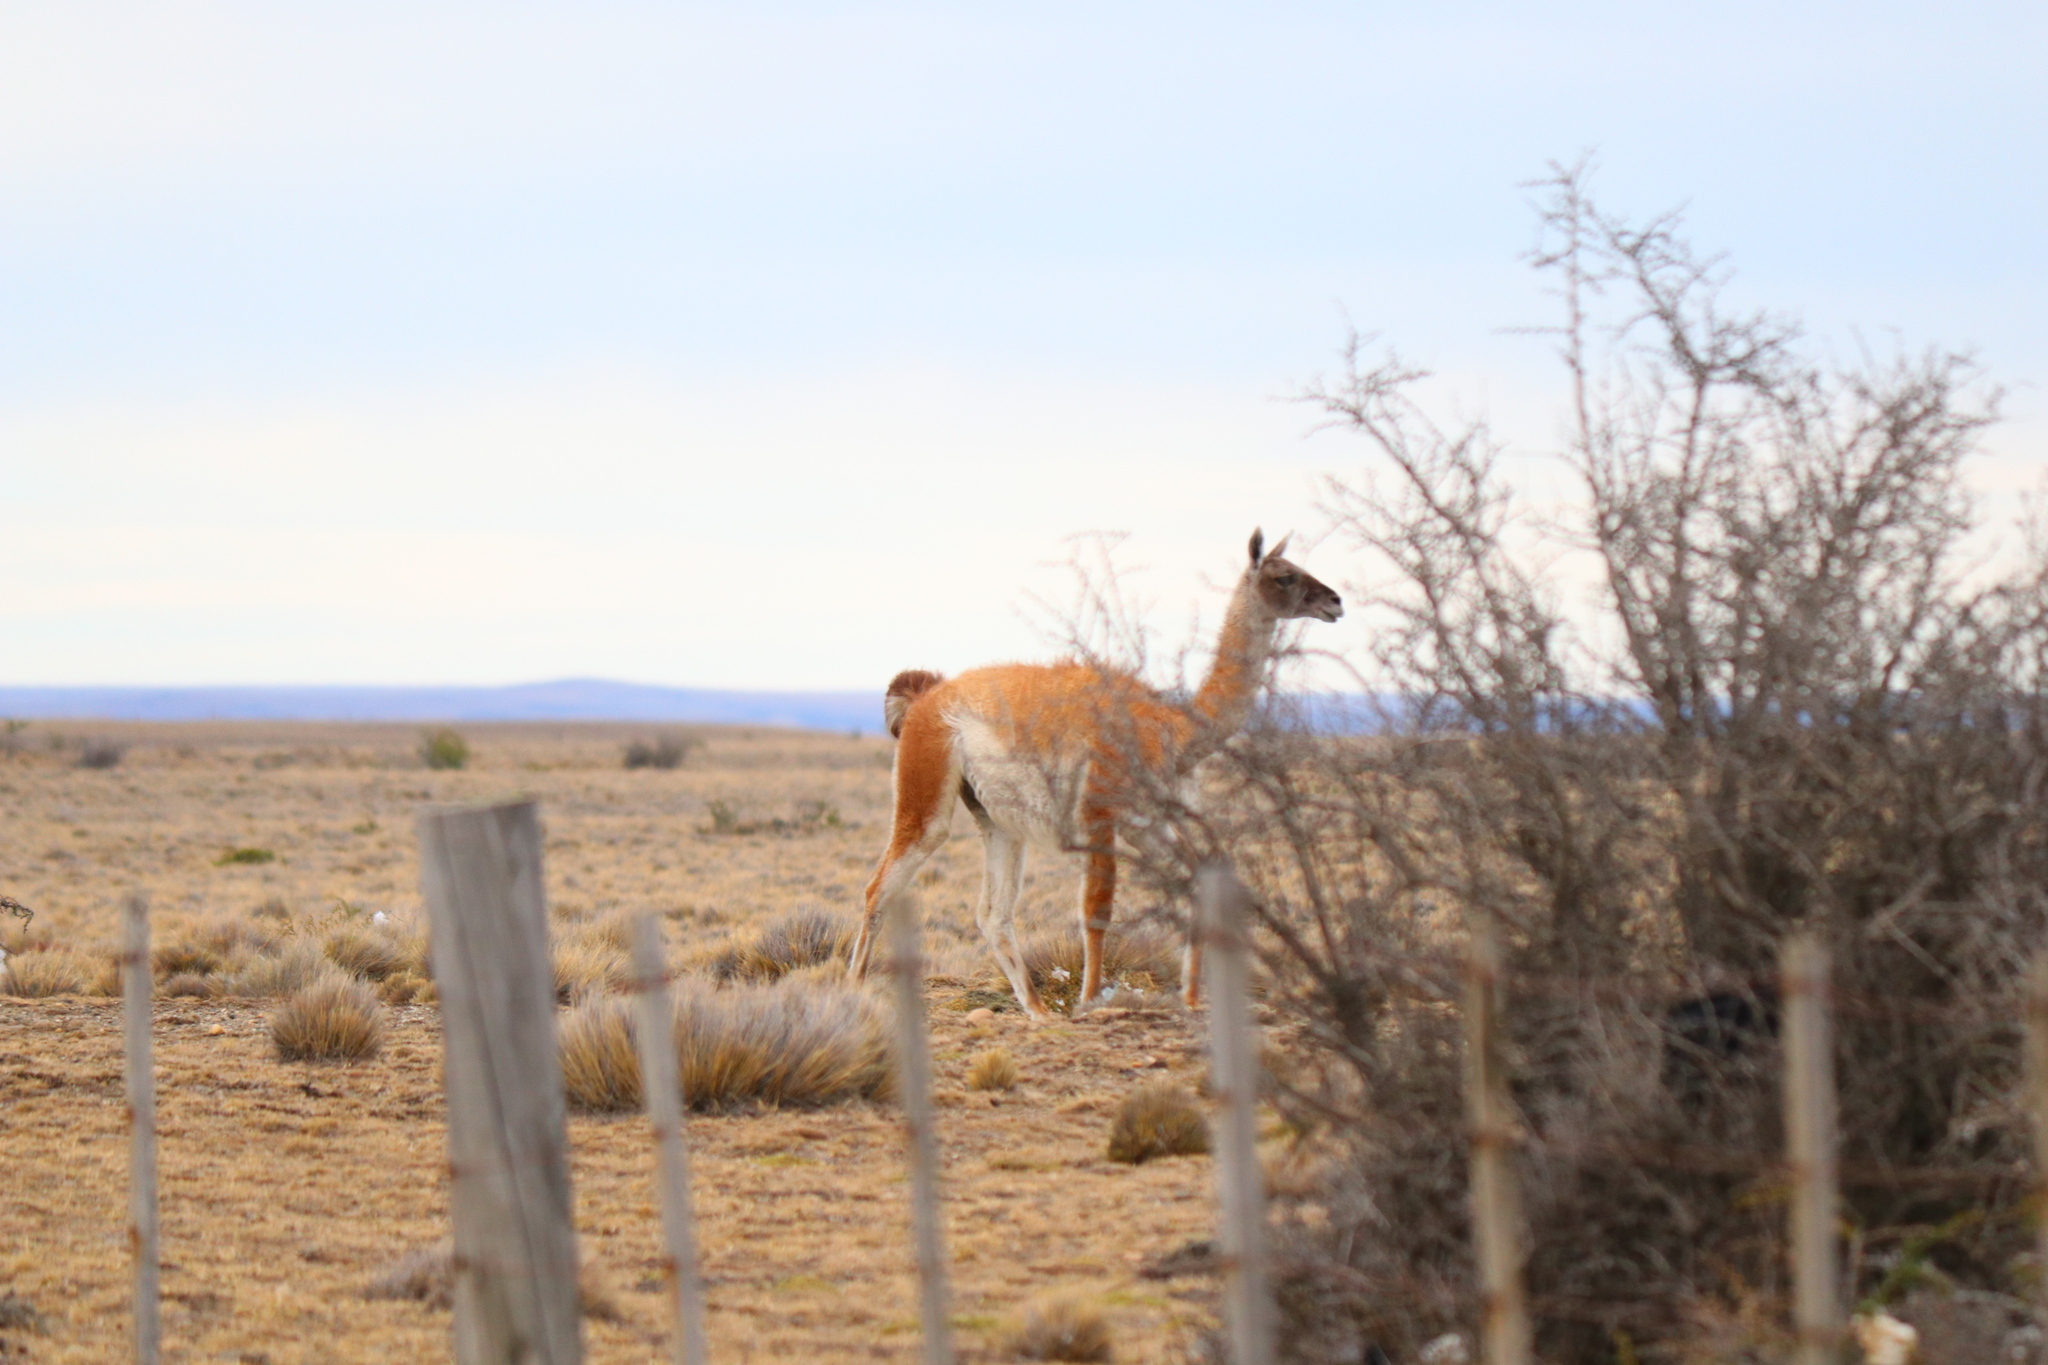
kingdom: Animalia
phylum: Chordata
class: Mammalia
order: Artiodactyla
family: Camelidae
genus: Lama
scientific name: Lama glama
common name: Llama
